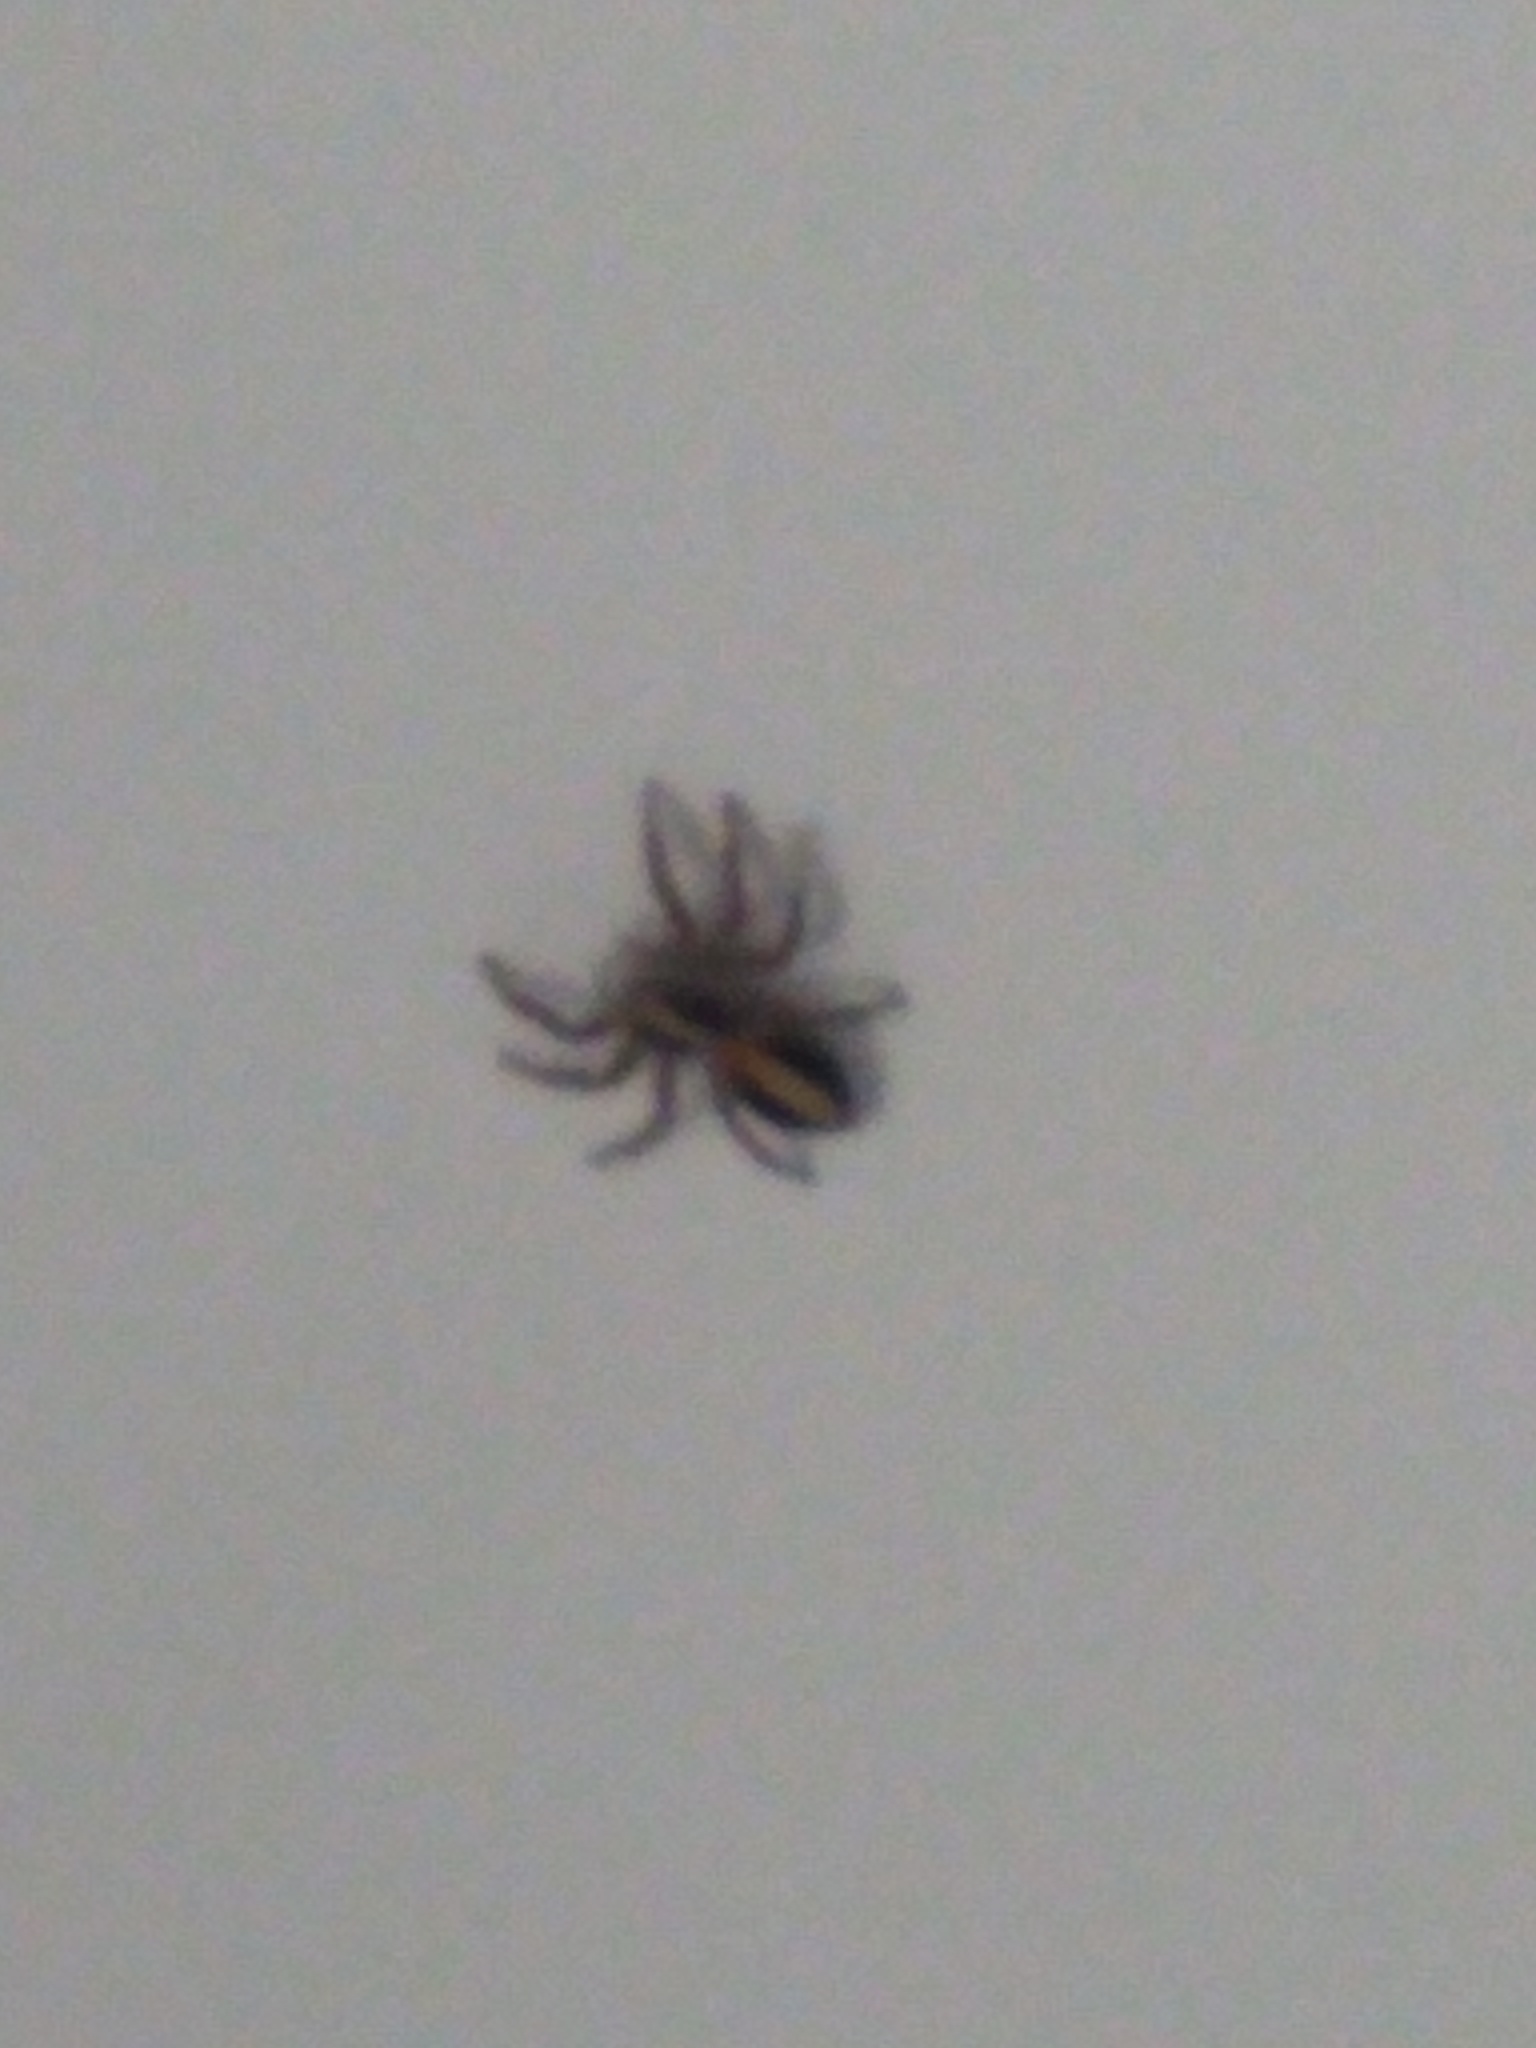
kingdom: Animalia
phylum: Arthropoda
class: Arachnida
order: Araneae
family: Salticidae
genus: Megafreya
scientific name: Megafreya sutrix
